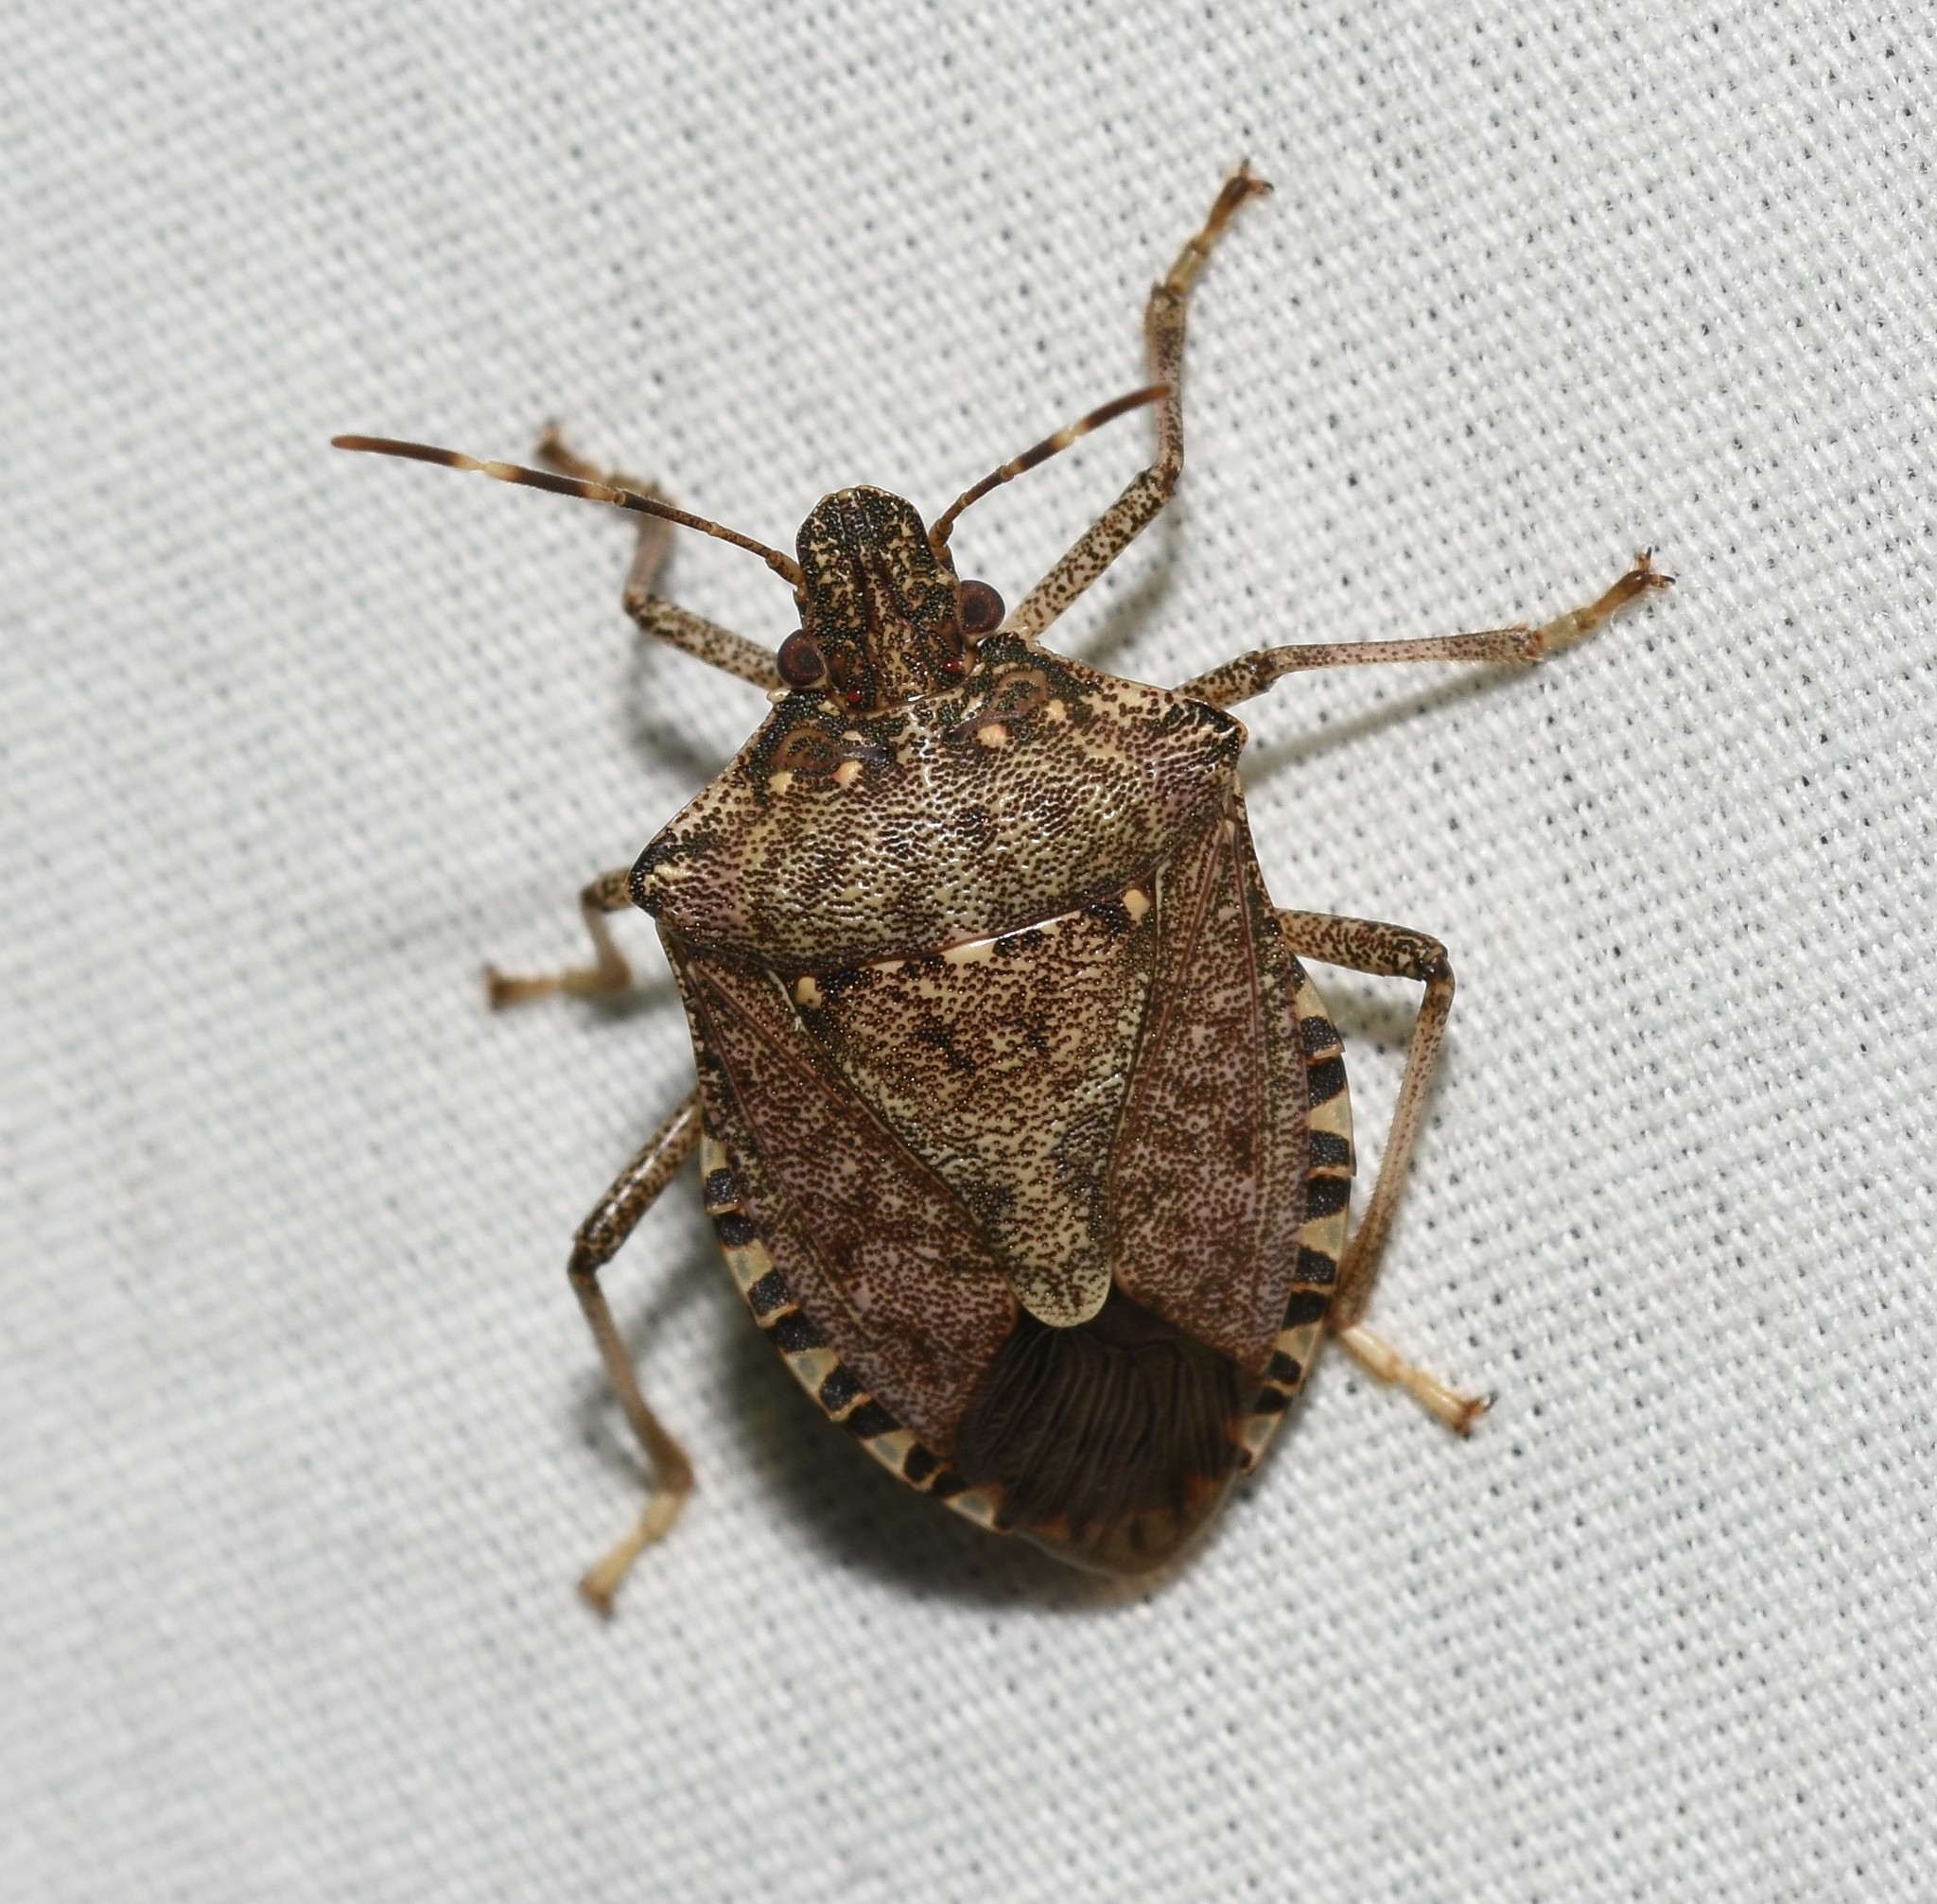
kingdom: Animalia
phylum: Arthropoda
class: Insecta
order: Hemiptera
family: Pentatomidae
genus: Halyomorpha
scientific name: Halyomorpha halys
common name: Brown marmorated stink bug
